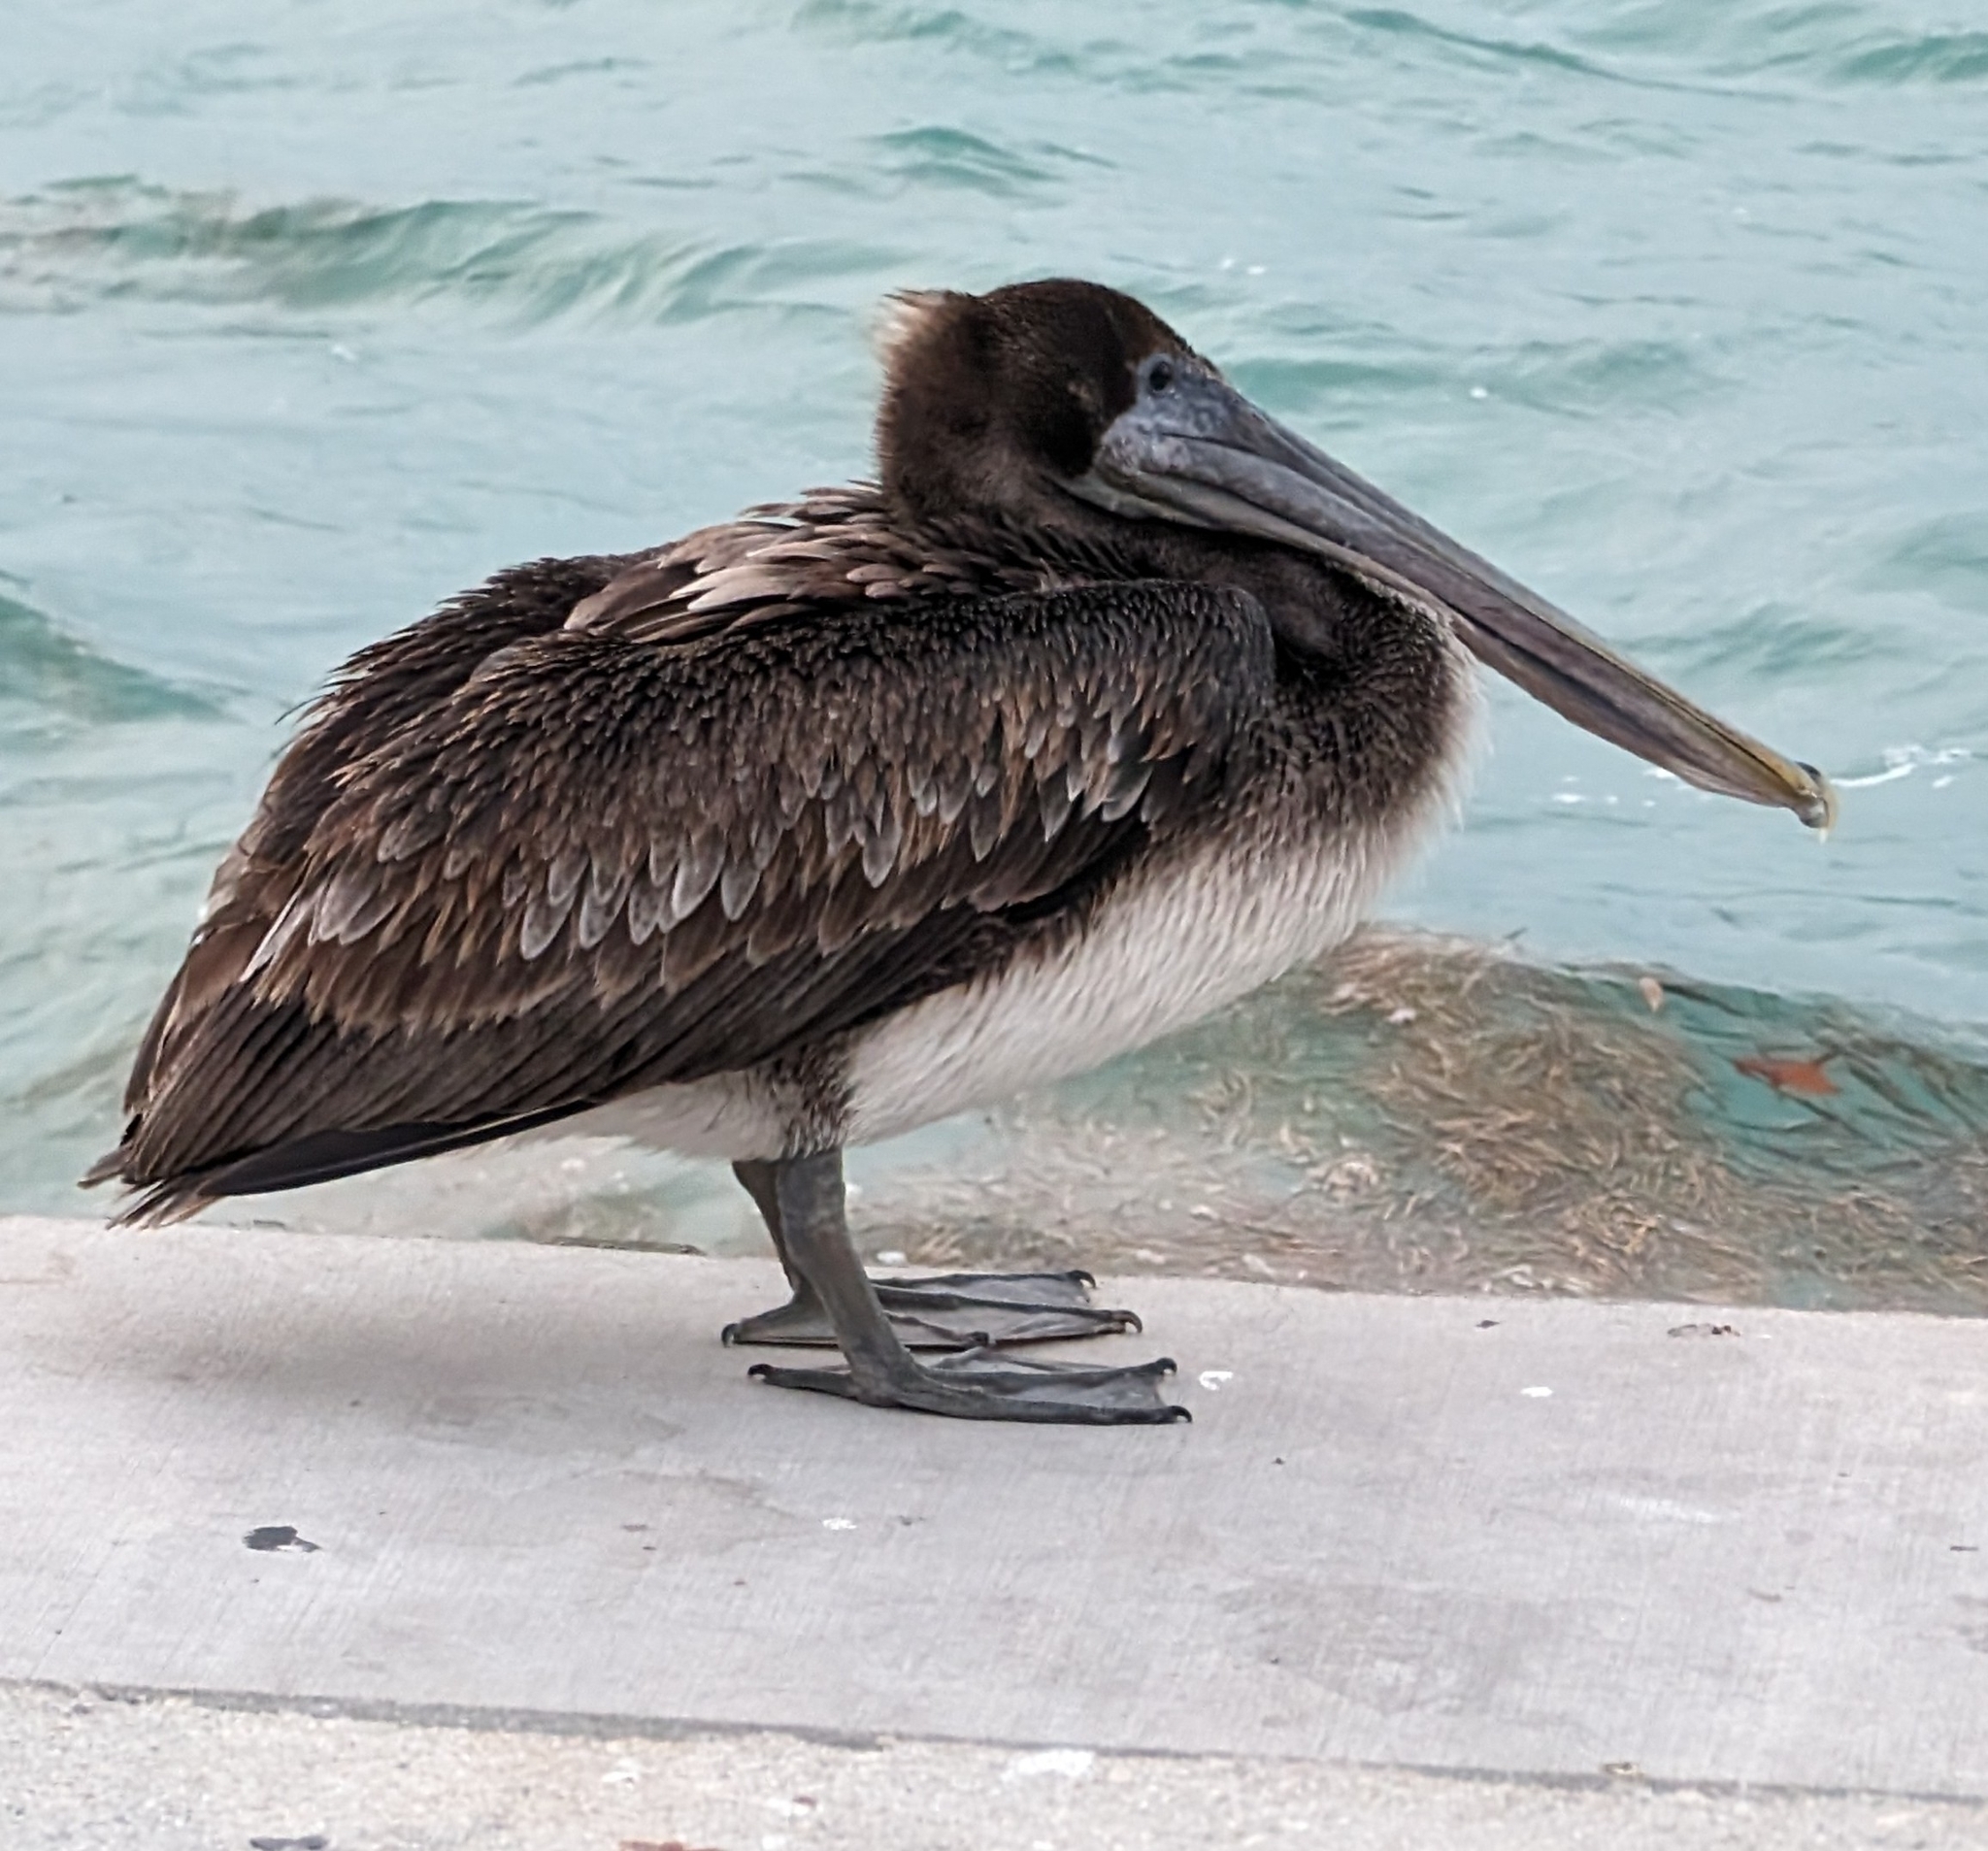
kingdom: Animalia
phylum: Chordata
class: Aves
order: Pelecaniformes
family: Pelecanidae
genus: Pelecanus
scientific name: Pelecanus occidentalis
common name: Brown pelican
